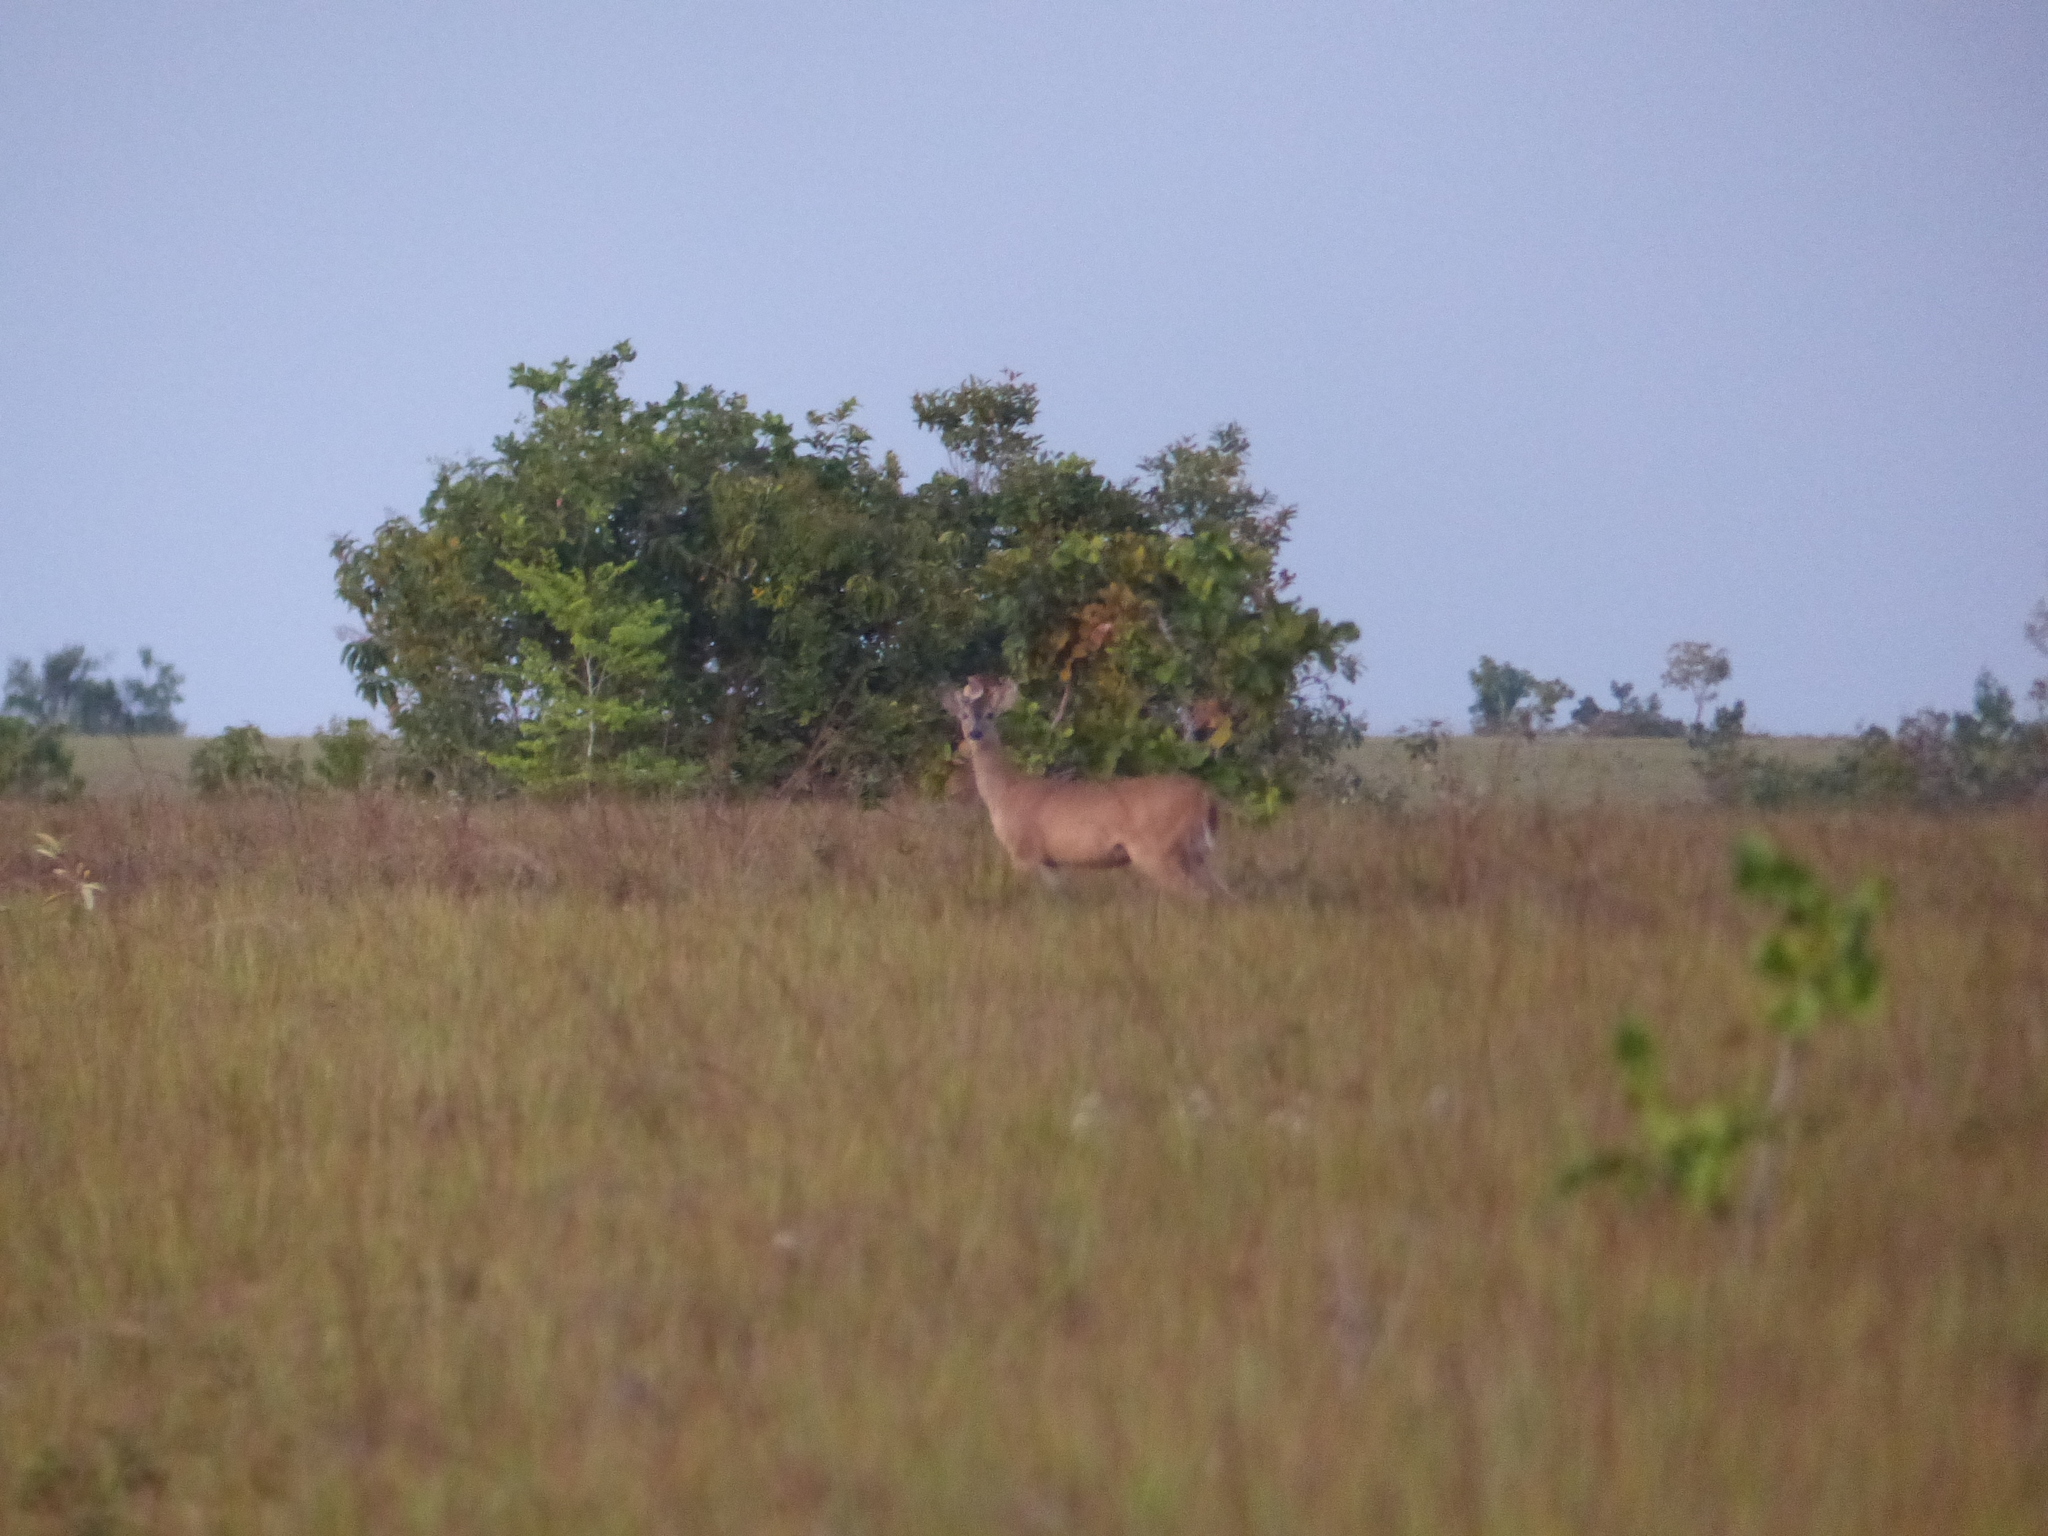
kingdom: Animalia
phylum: Chordata
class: Mammalia
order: Artiodactyla
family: Cervidae
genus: Odocoileus
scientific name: Odocoileus virginianus
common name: White-tailed deer
